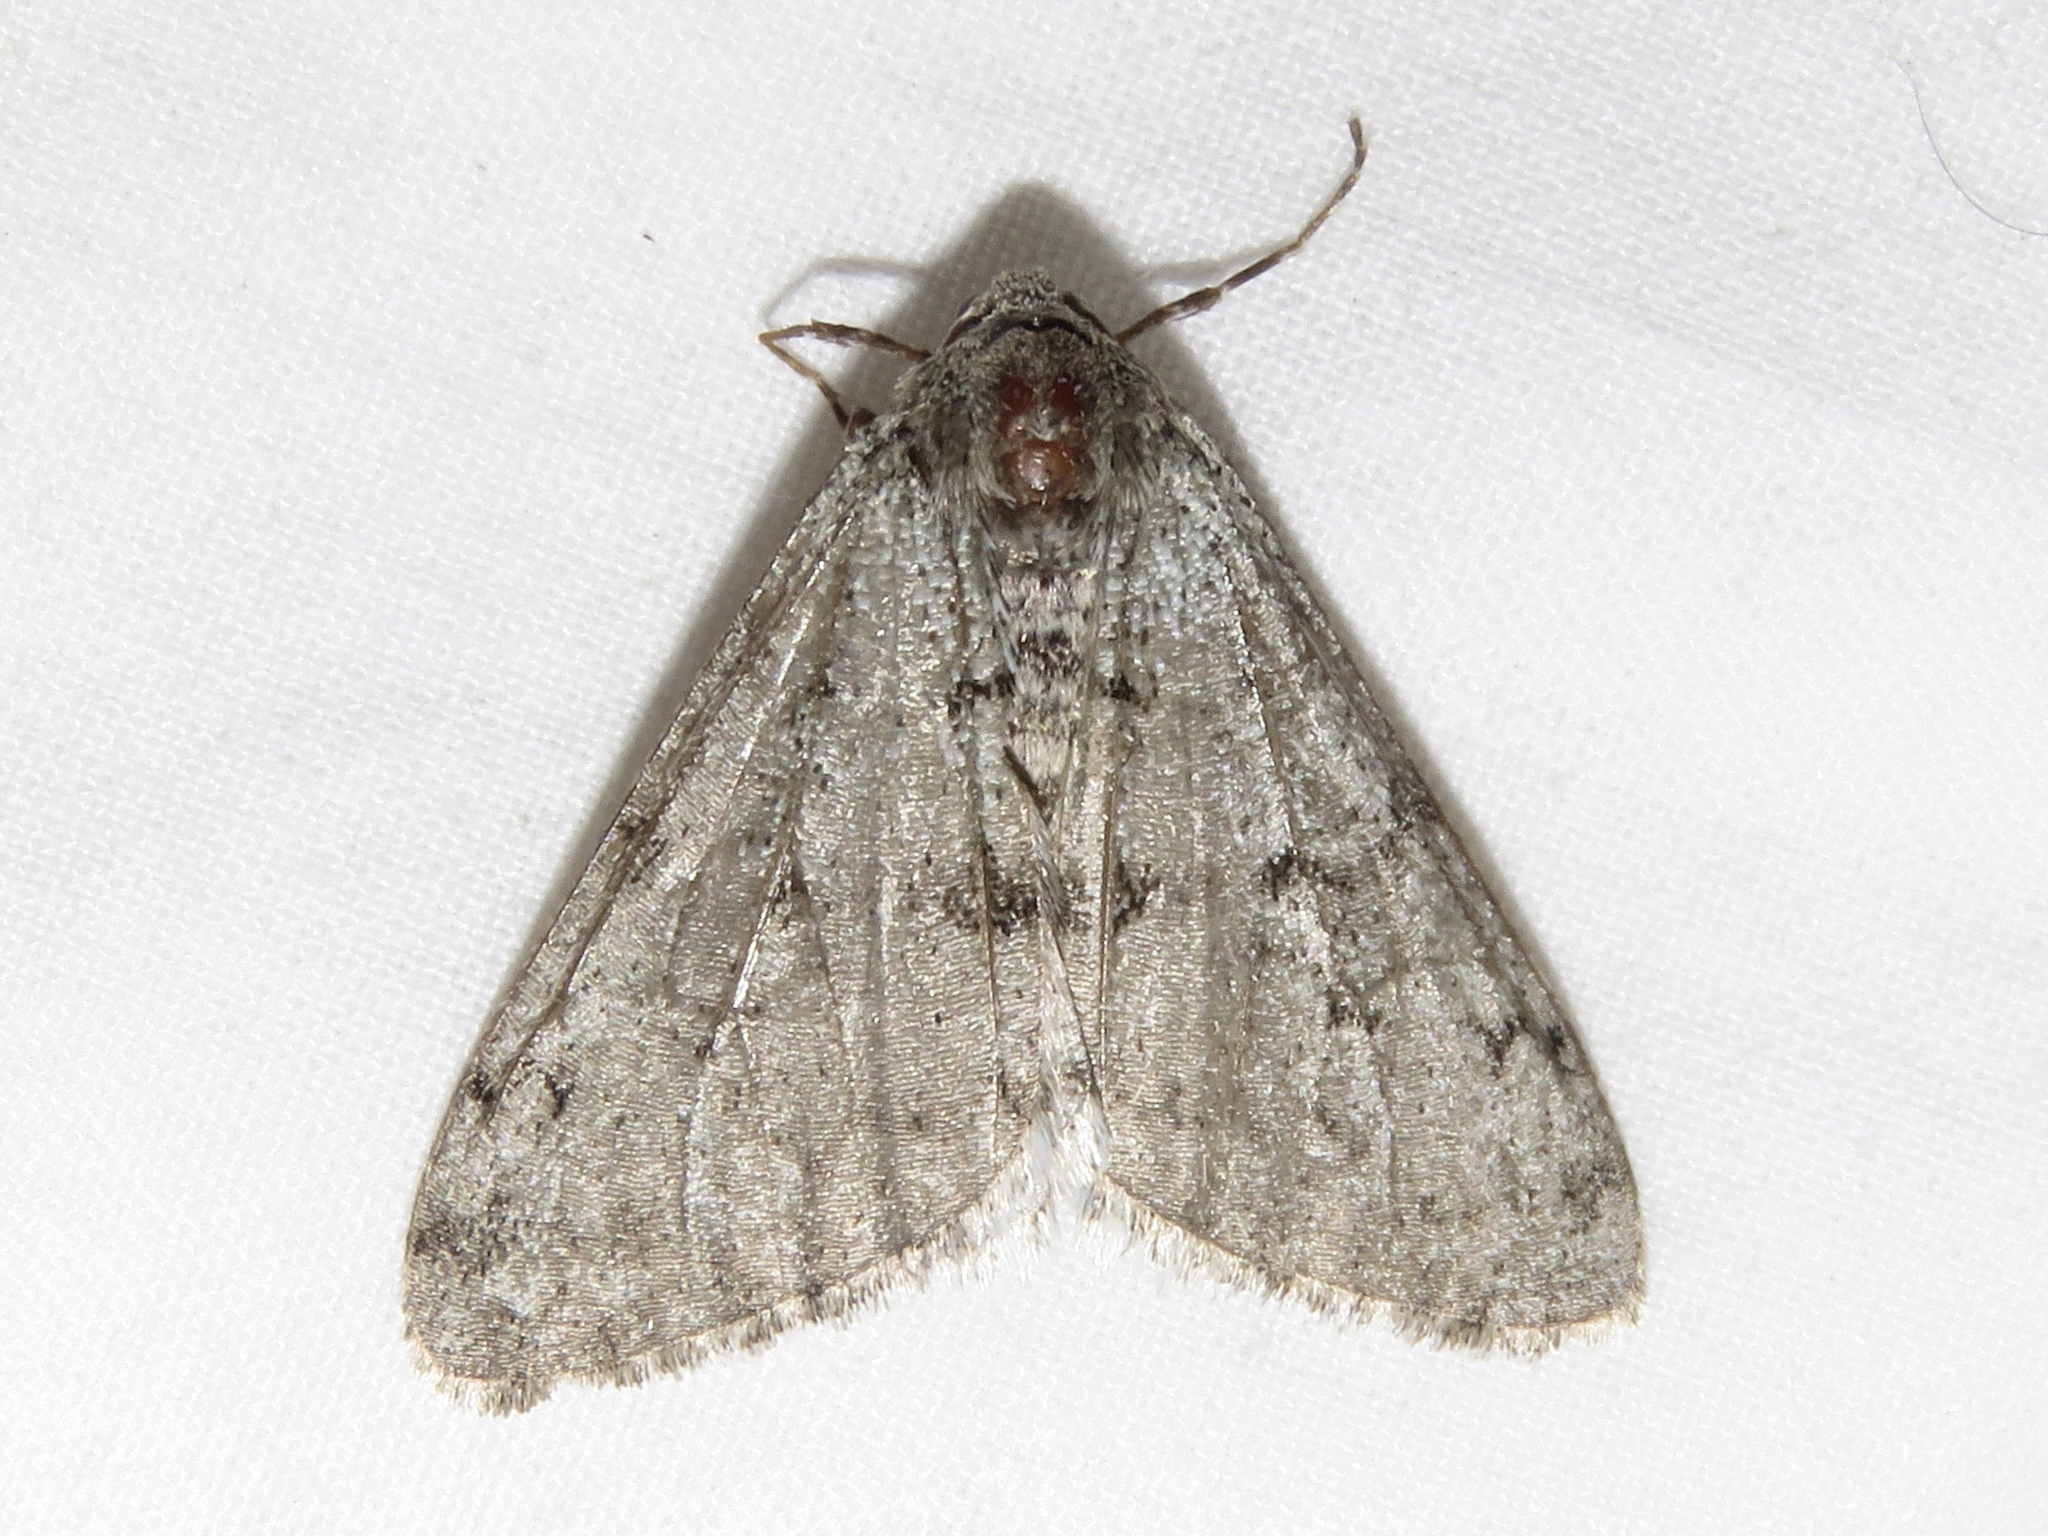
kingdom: Animalia
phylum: Arthropoda
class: Insecta
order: Lepidoptera
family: Geometridae
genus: Phigalia
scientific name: Phigalia strigataria
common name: Small phigalia
